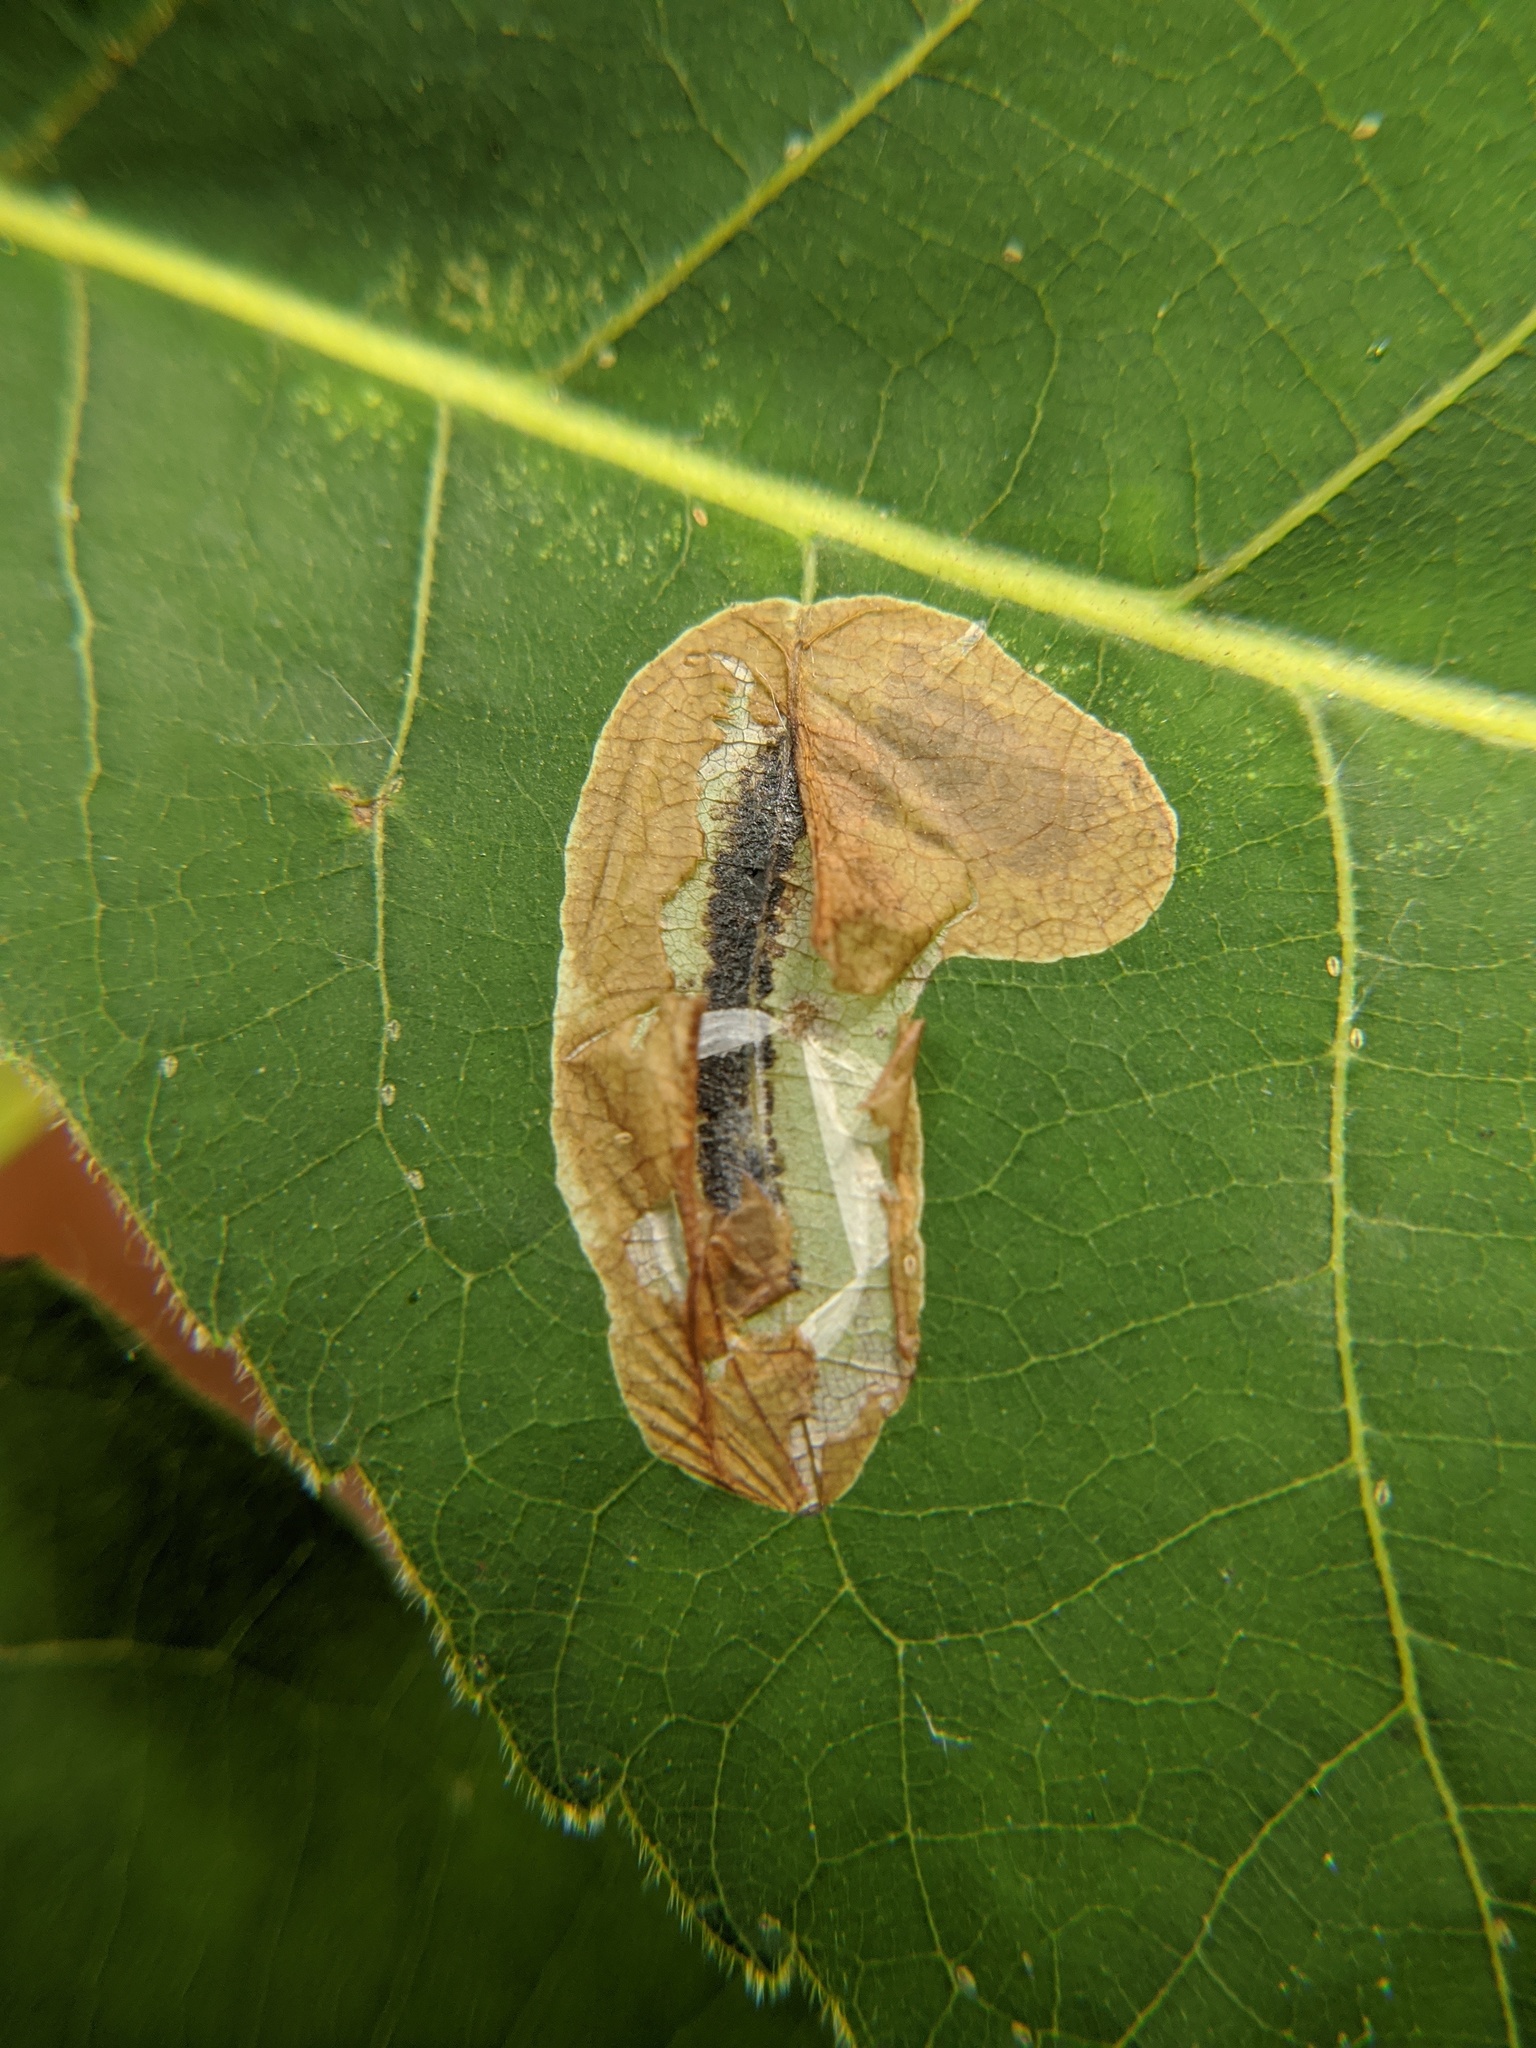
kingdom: Animalia
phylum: Arthropoda
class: Insecta
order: Lepidoptera
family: Gracillariidae
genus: Cameraria
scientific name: Cameraria caryaefoliella
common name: Pecan leafminer moth
